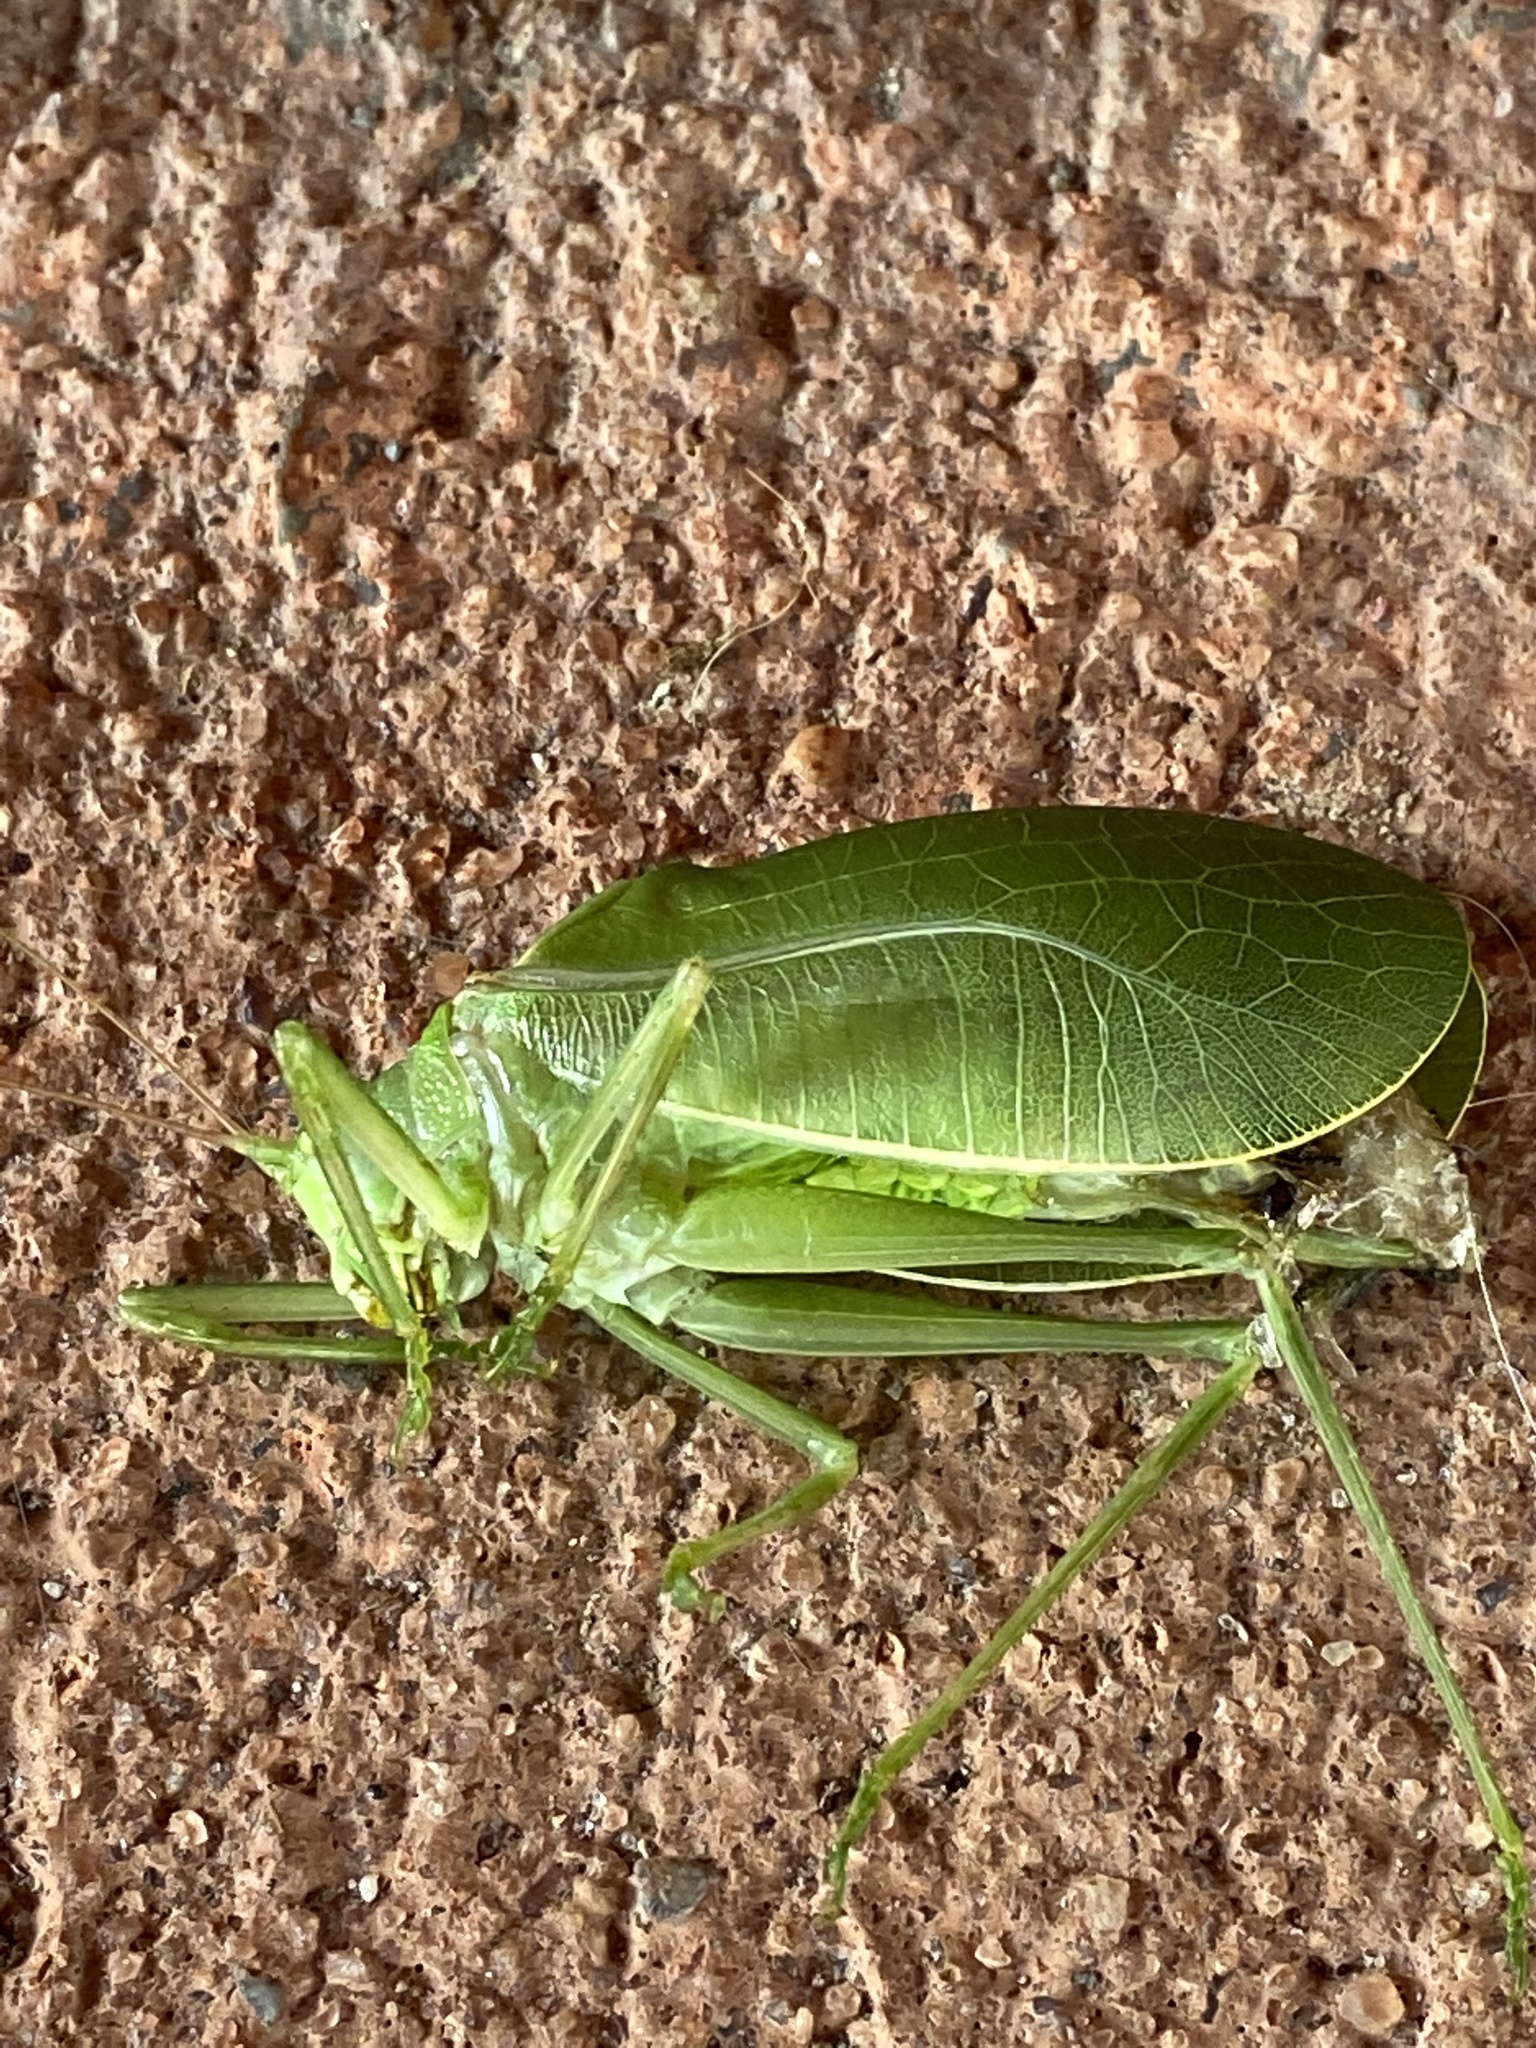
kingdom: Animalia
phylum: Arthropoda
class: Insecta
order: Orthoptera
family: Tettigoniidae
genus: Pterophylla
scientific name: Pterophylla camellifolia
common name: Common true katydid
